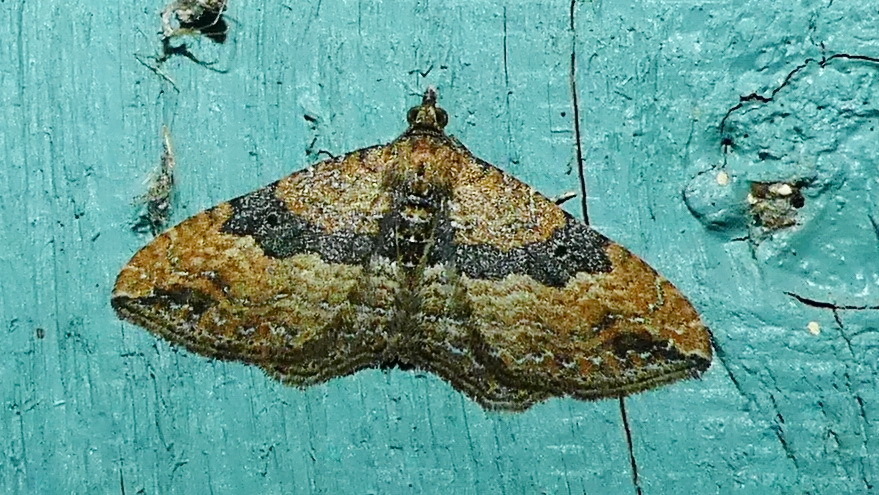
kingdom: Animalia
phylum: Arthropoda
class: Insecta
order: Lepidoptera
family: Geometridae
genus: Orthonama
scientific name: Orthonama obstipata
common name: The gem
